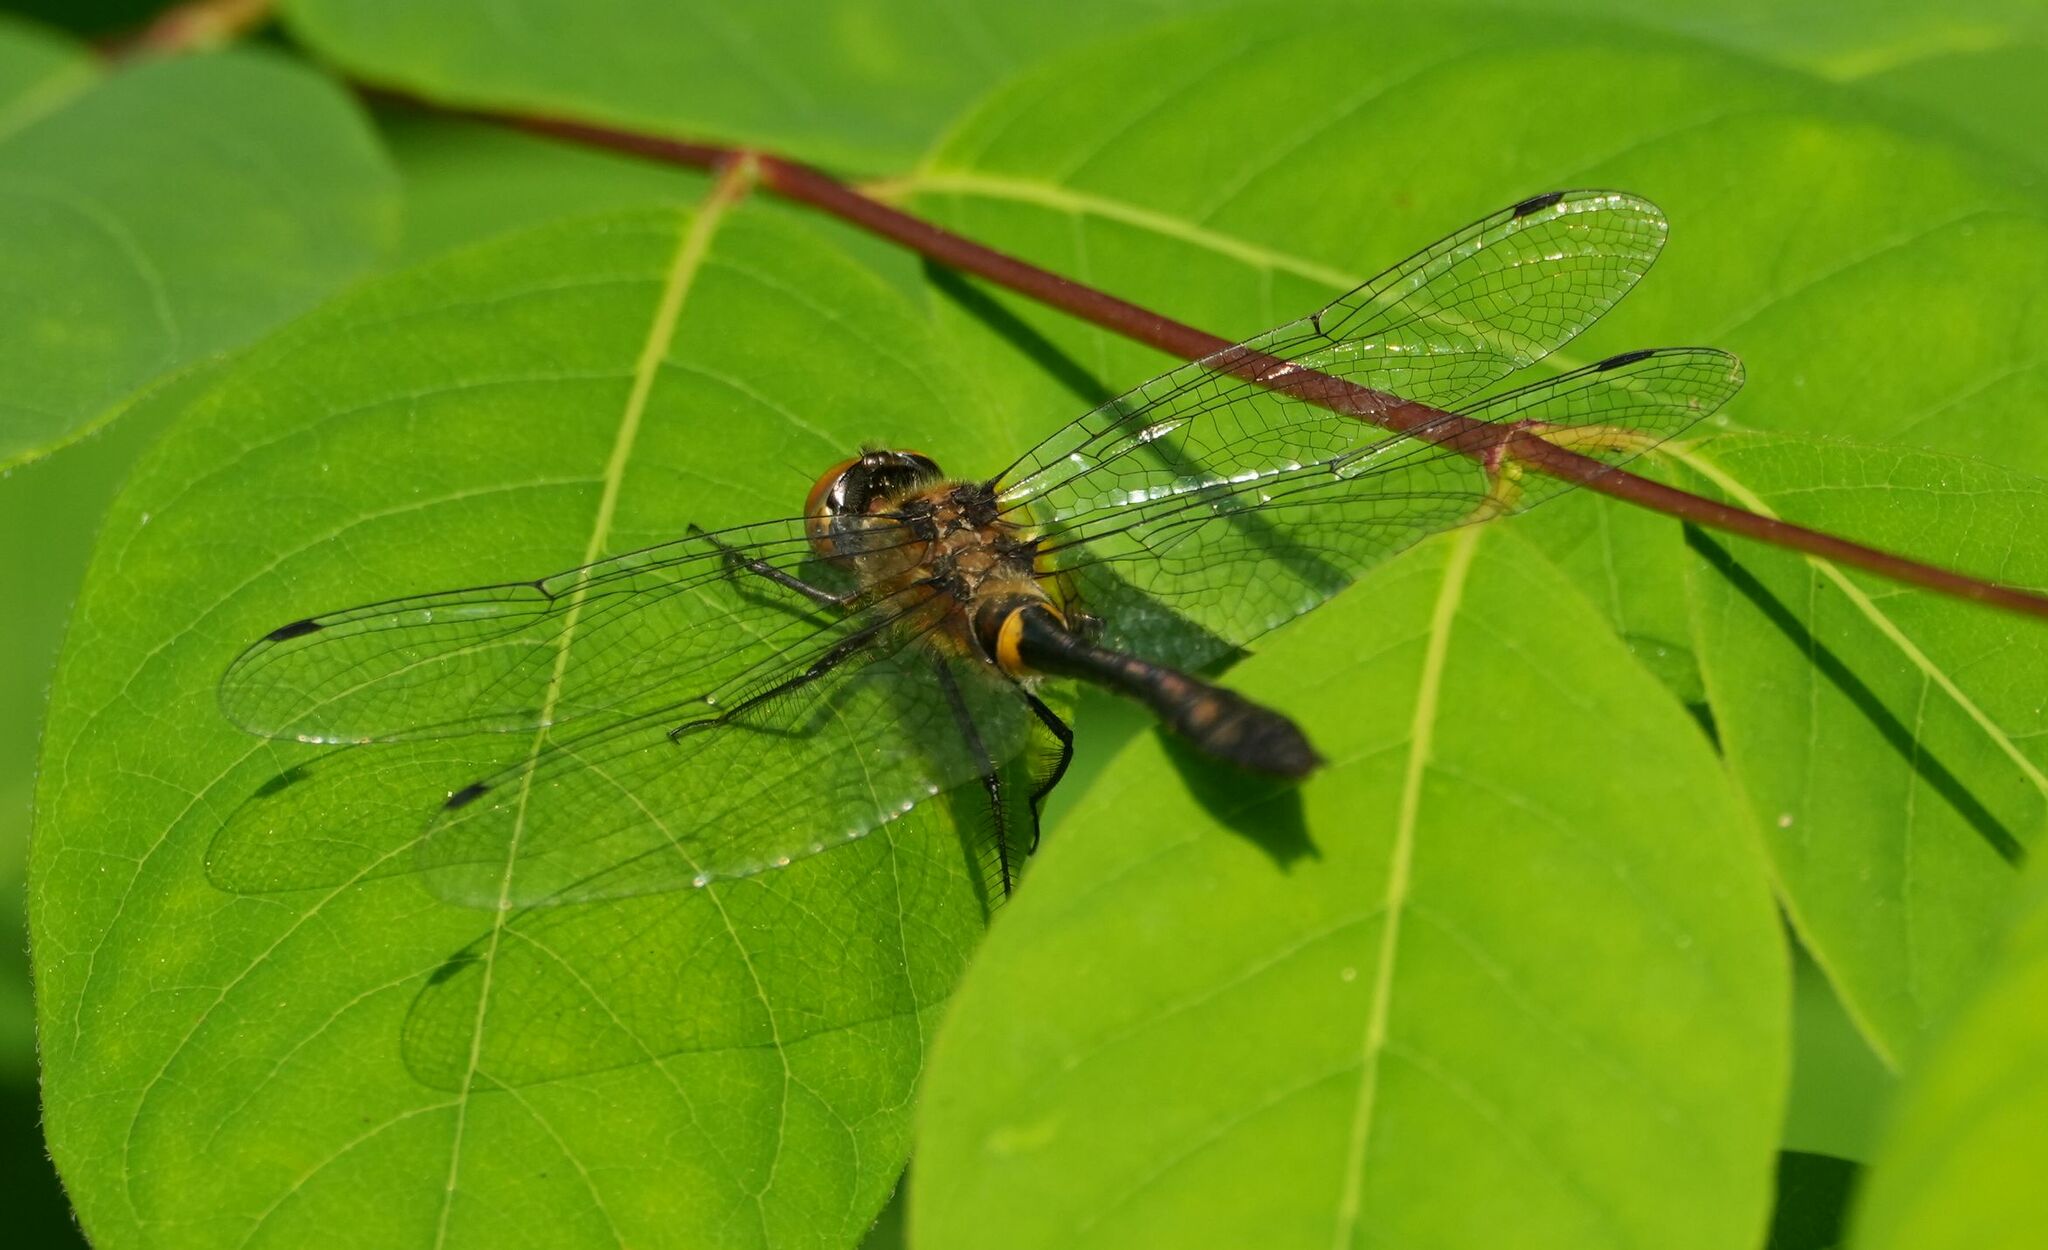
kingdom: Animalia
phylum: Arthropoda
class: Insecta
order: Odonata
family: Corduliidae
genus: Dorocordulia
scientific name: Dorocordulia libera
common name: Racket-tailed emerald
